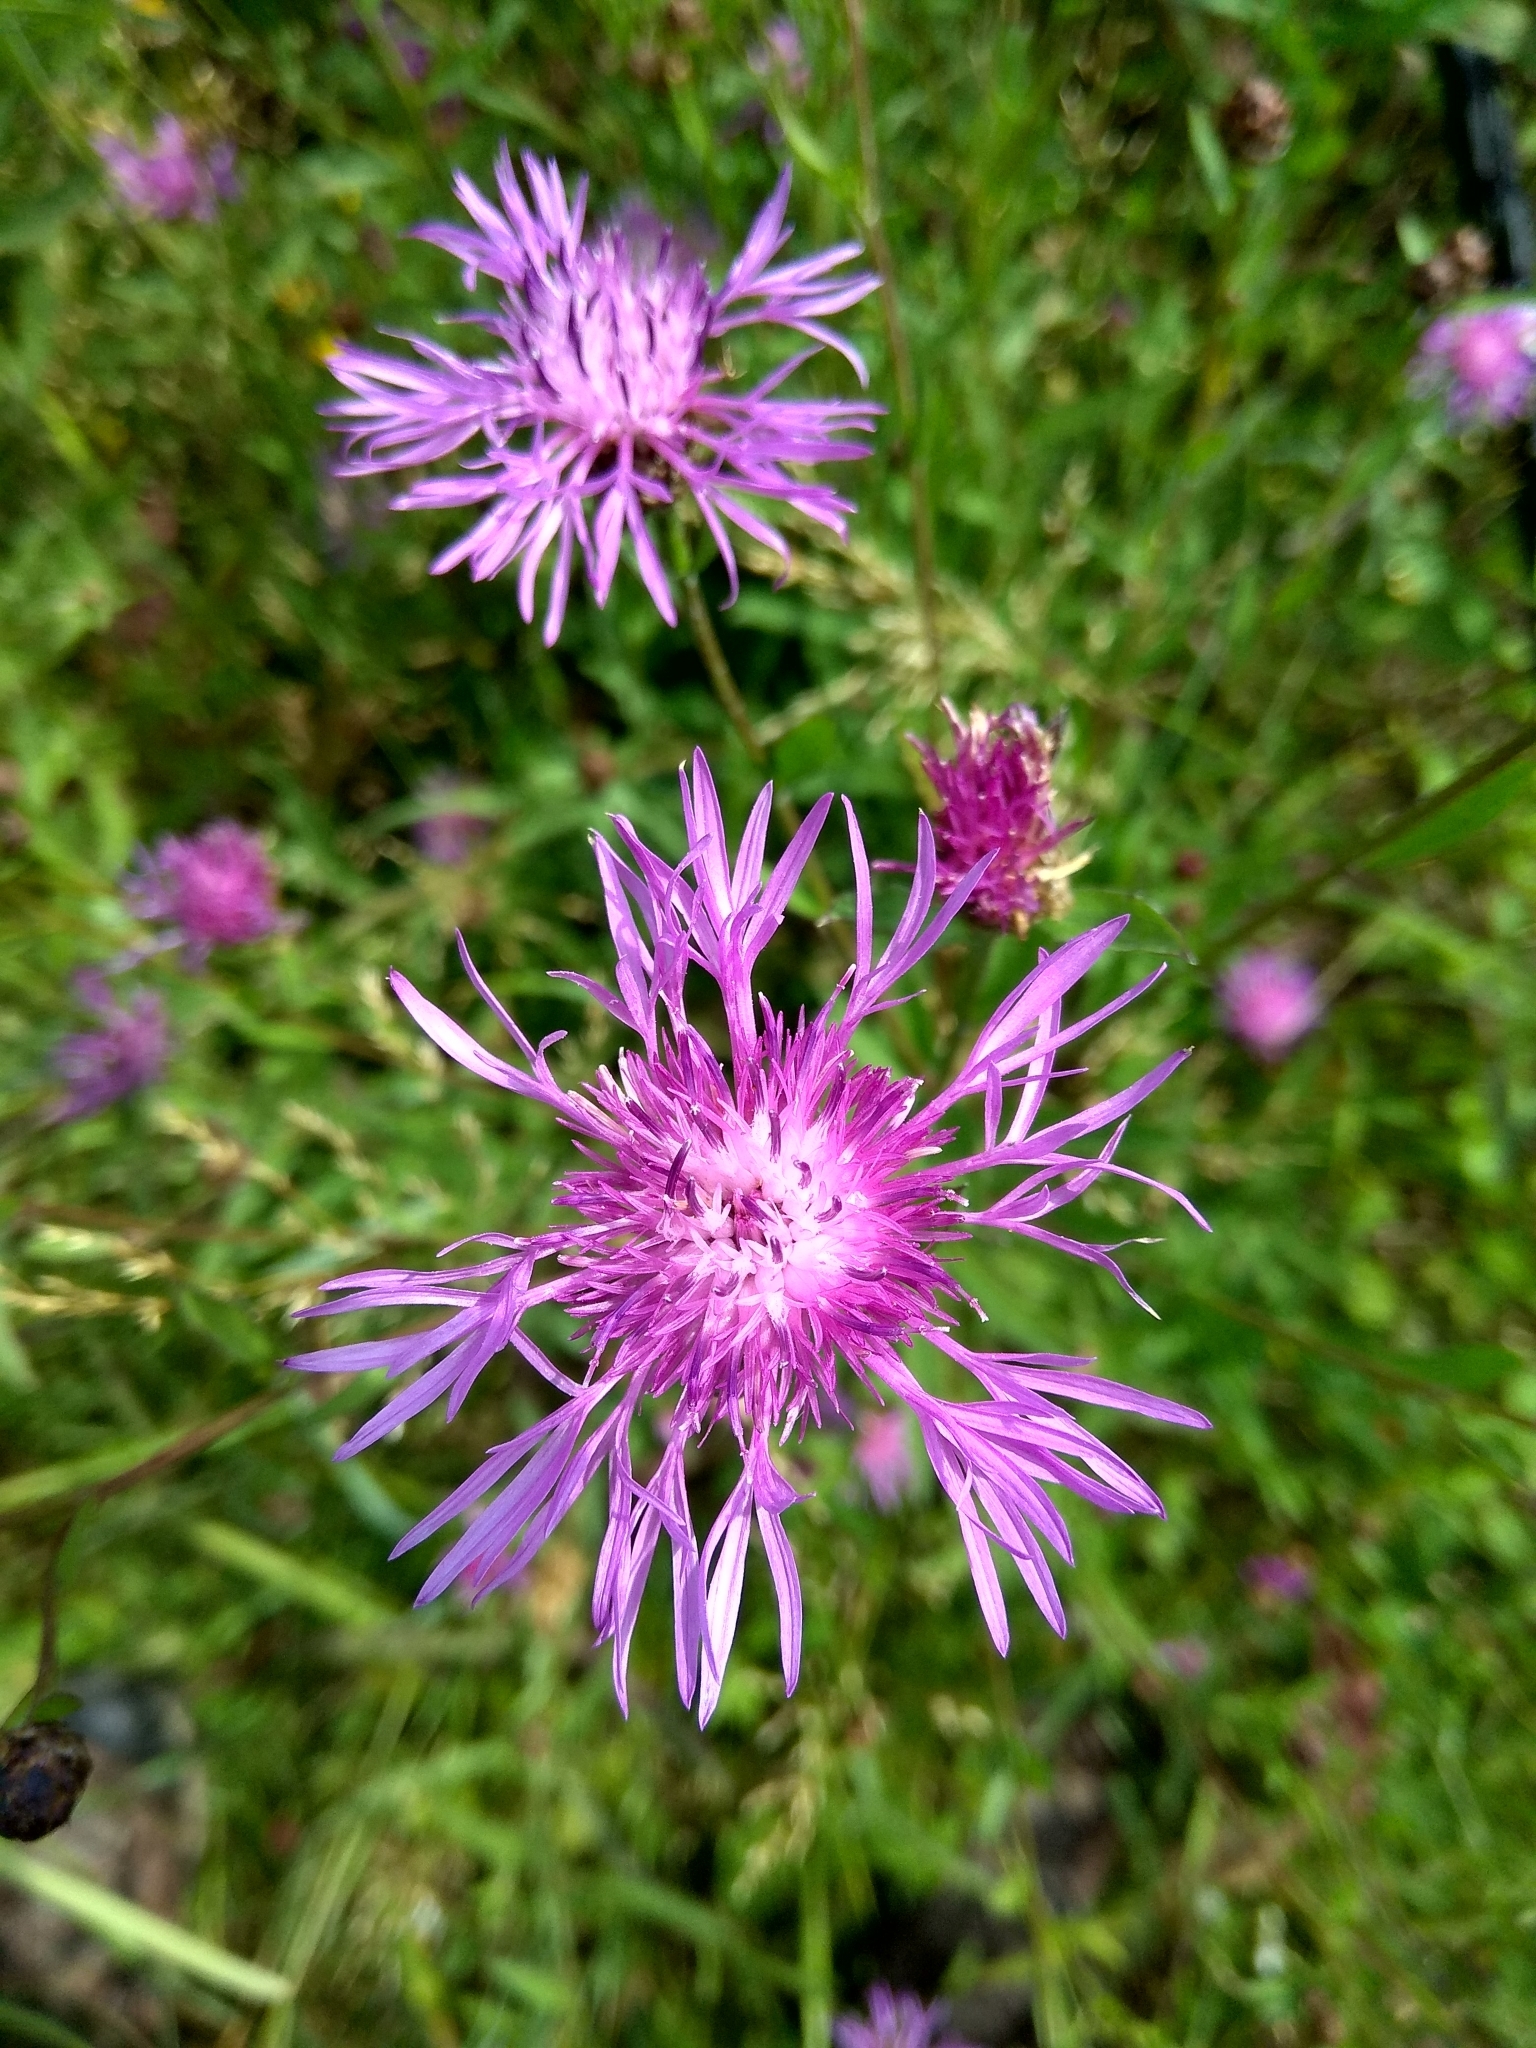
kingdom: Plantae
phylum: Tracheophyta
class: Magnoliopsida
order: Asterales
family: Asteraceae
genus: Centaurea
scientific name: Centaurea jacea
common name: Brown knapweed
